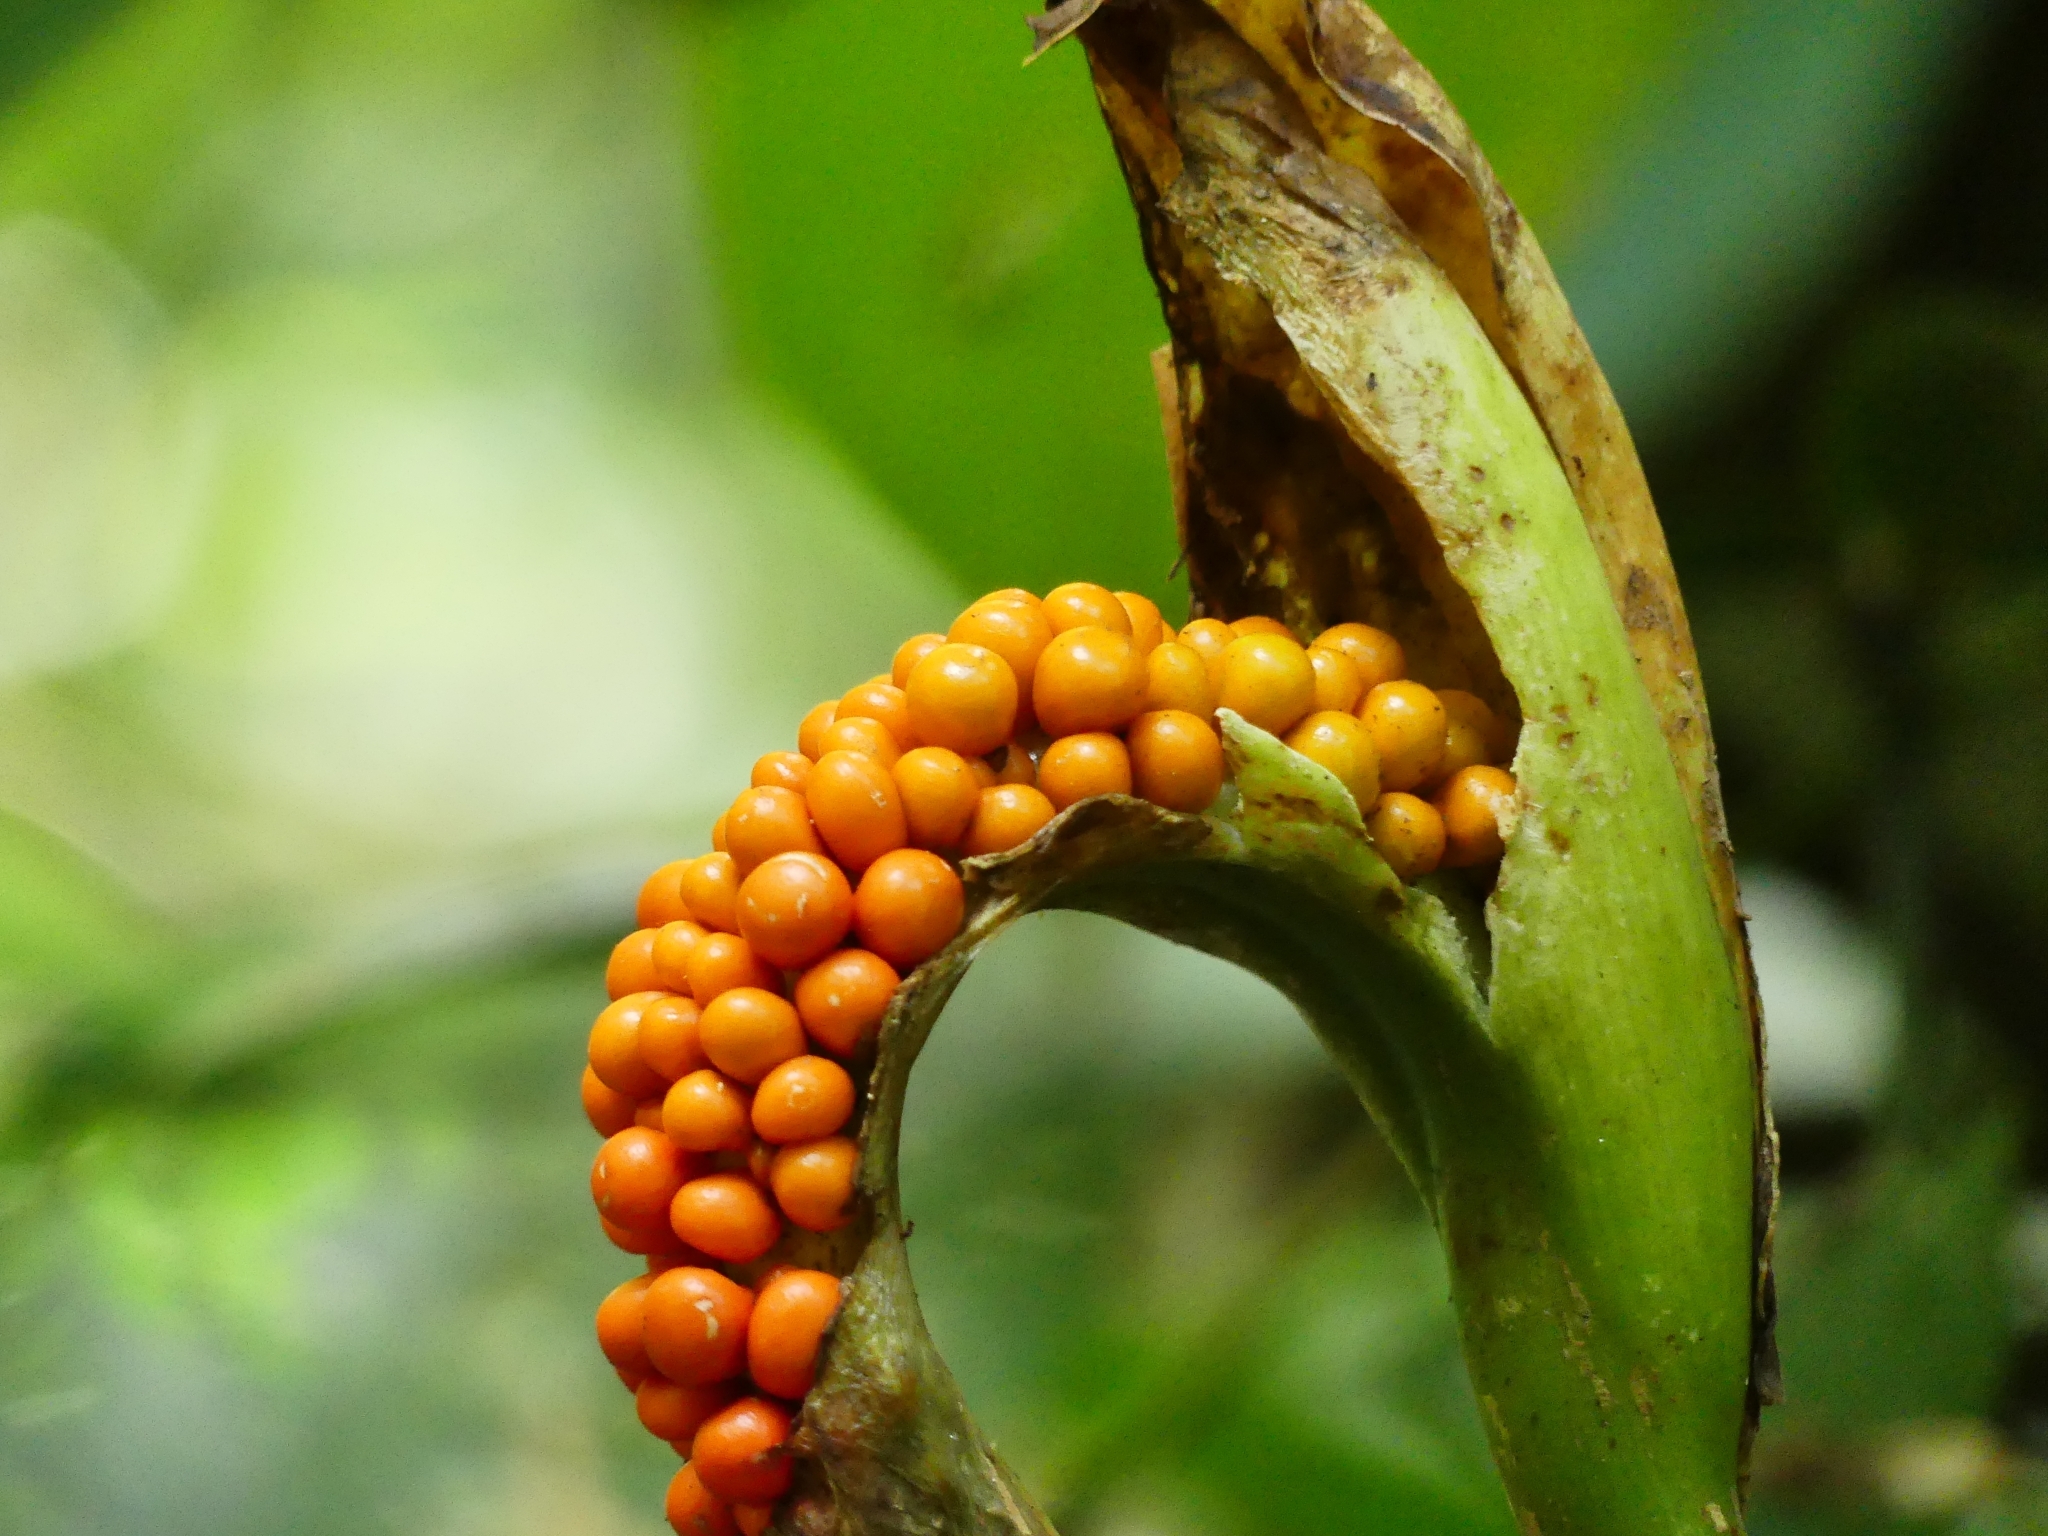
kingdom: Plantae
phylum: Tracheophyta
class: Liliopsida
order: Alismatales
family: Araceae
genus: Dieffenbachia
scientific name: Dieffenbachia
